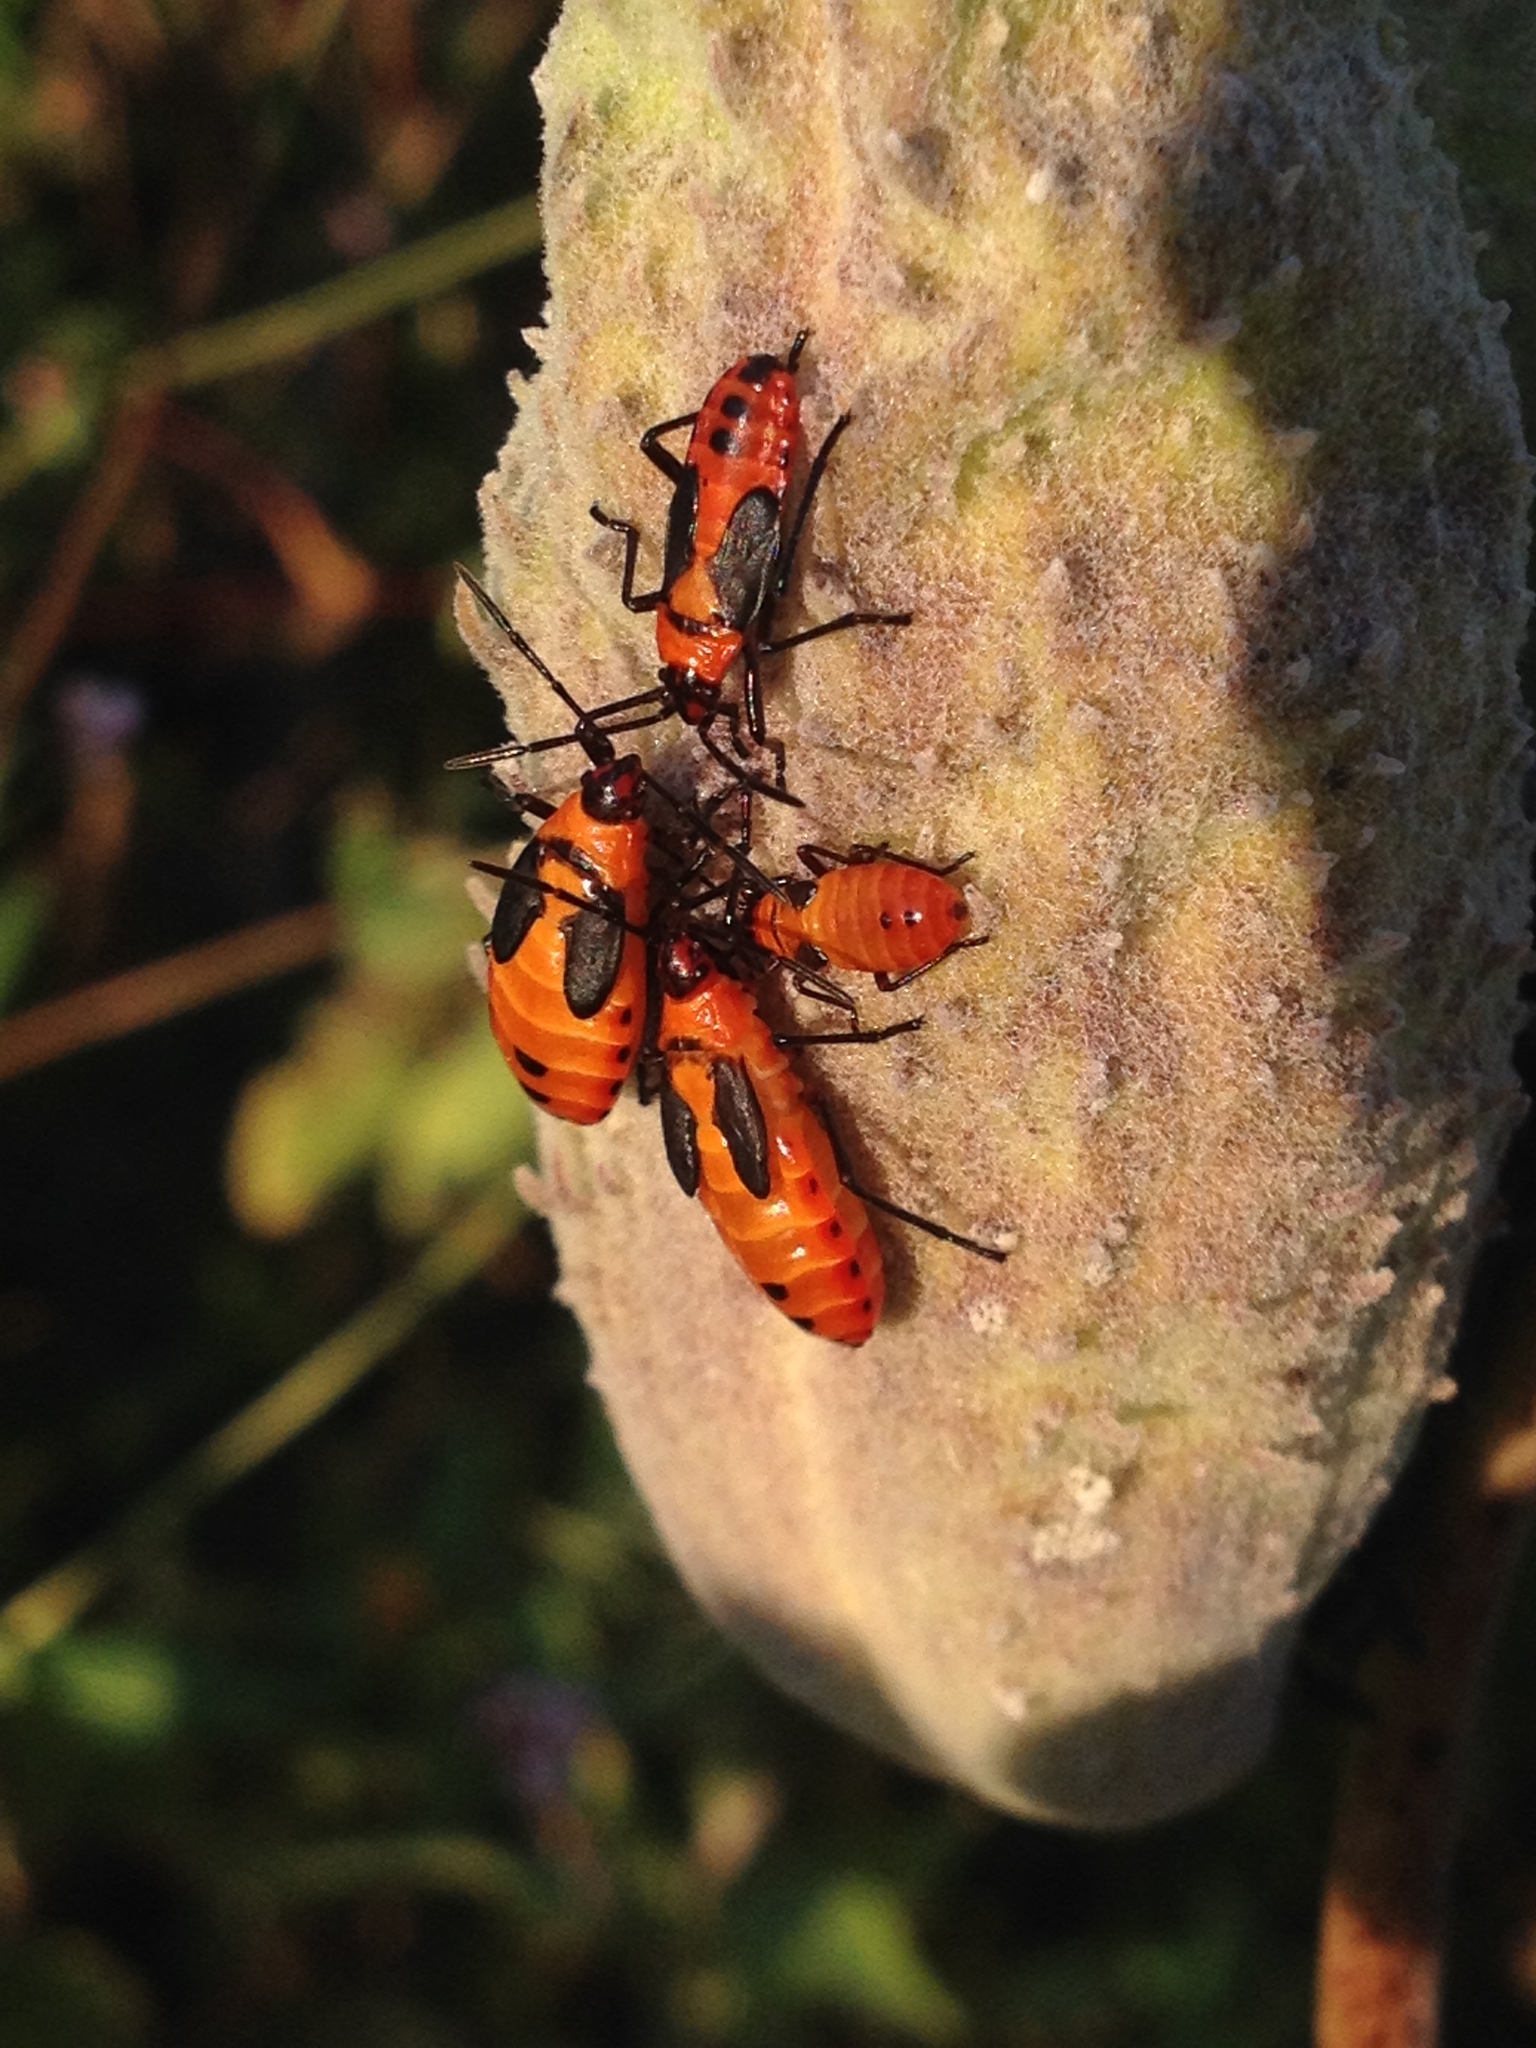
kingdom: Animalia
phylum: Arthropoda
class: Insecta
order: Hemiptera
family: Lygaeidae
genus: Oncopeltus
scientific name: Oncopeltus fasciatus
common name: Large milkweed bug
